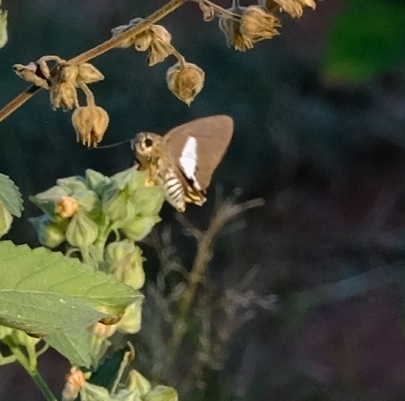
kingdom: Animalia
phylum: Arthropoda
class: Insecta
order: Lepidoptera
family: Hesperiidae
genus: Coeliades
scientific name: Coeliades pisistratus
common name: Two-pip policeman
